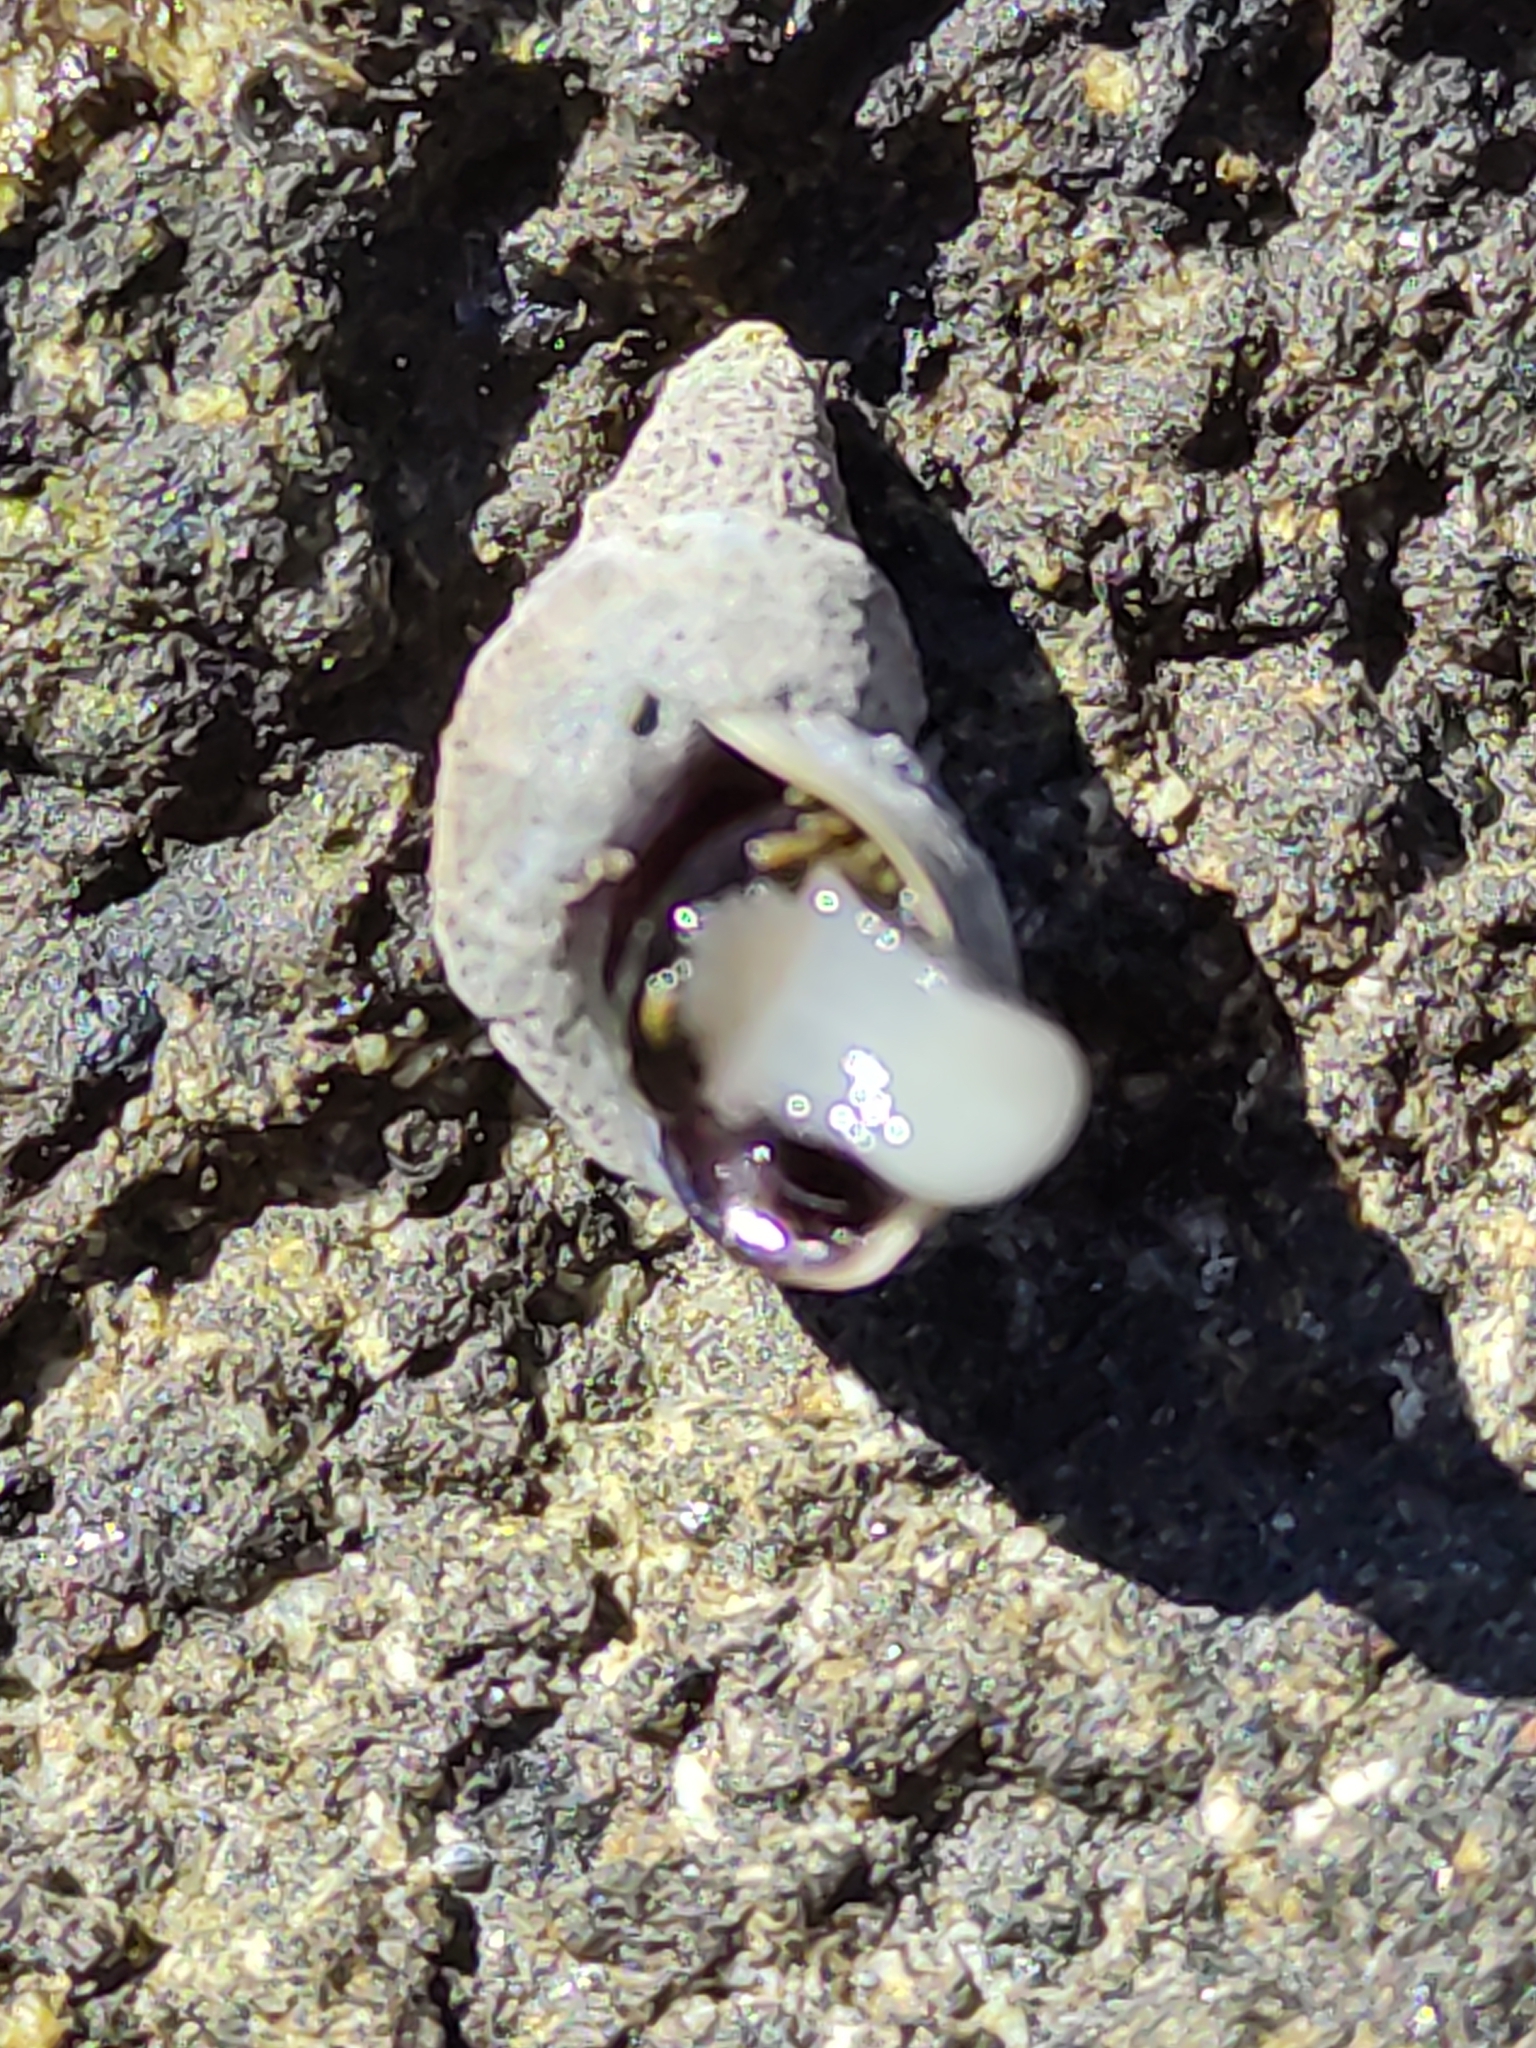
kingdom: Animalia
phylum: Mollusca
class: Gastropoda
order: Littorinimorpha
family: Littorinidae
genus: Austrolittorina
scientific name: Austrolittorina antipodum
